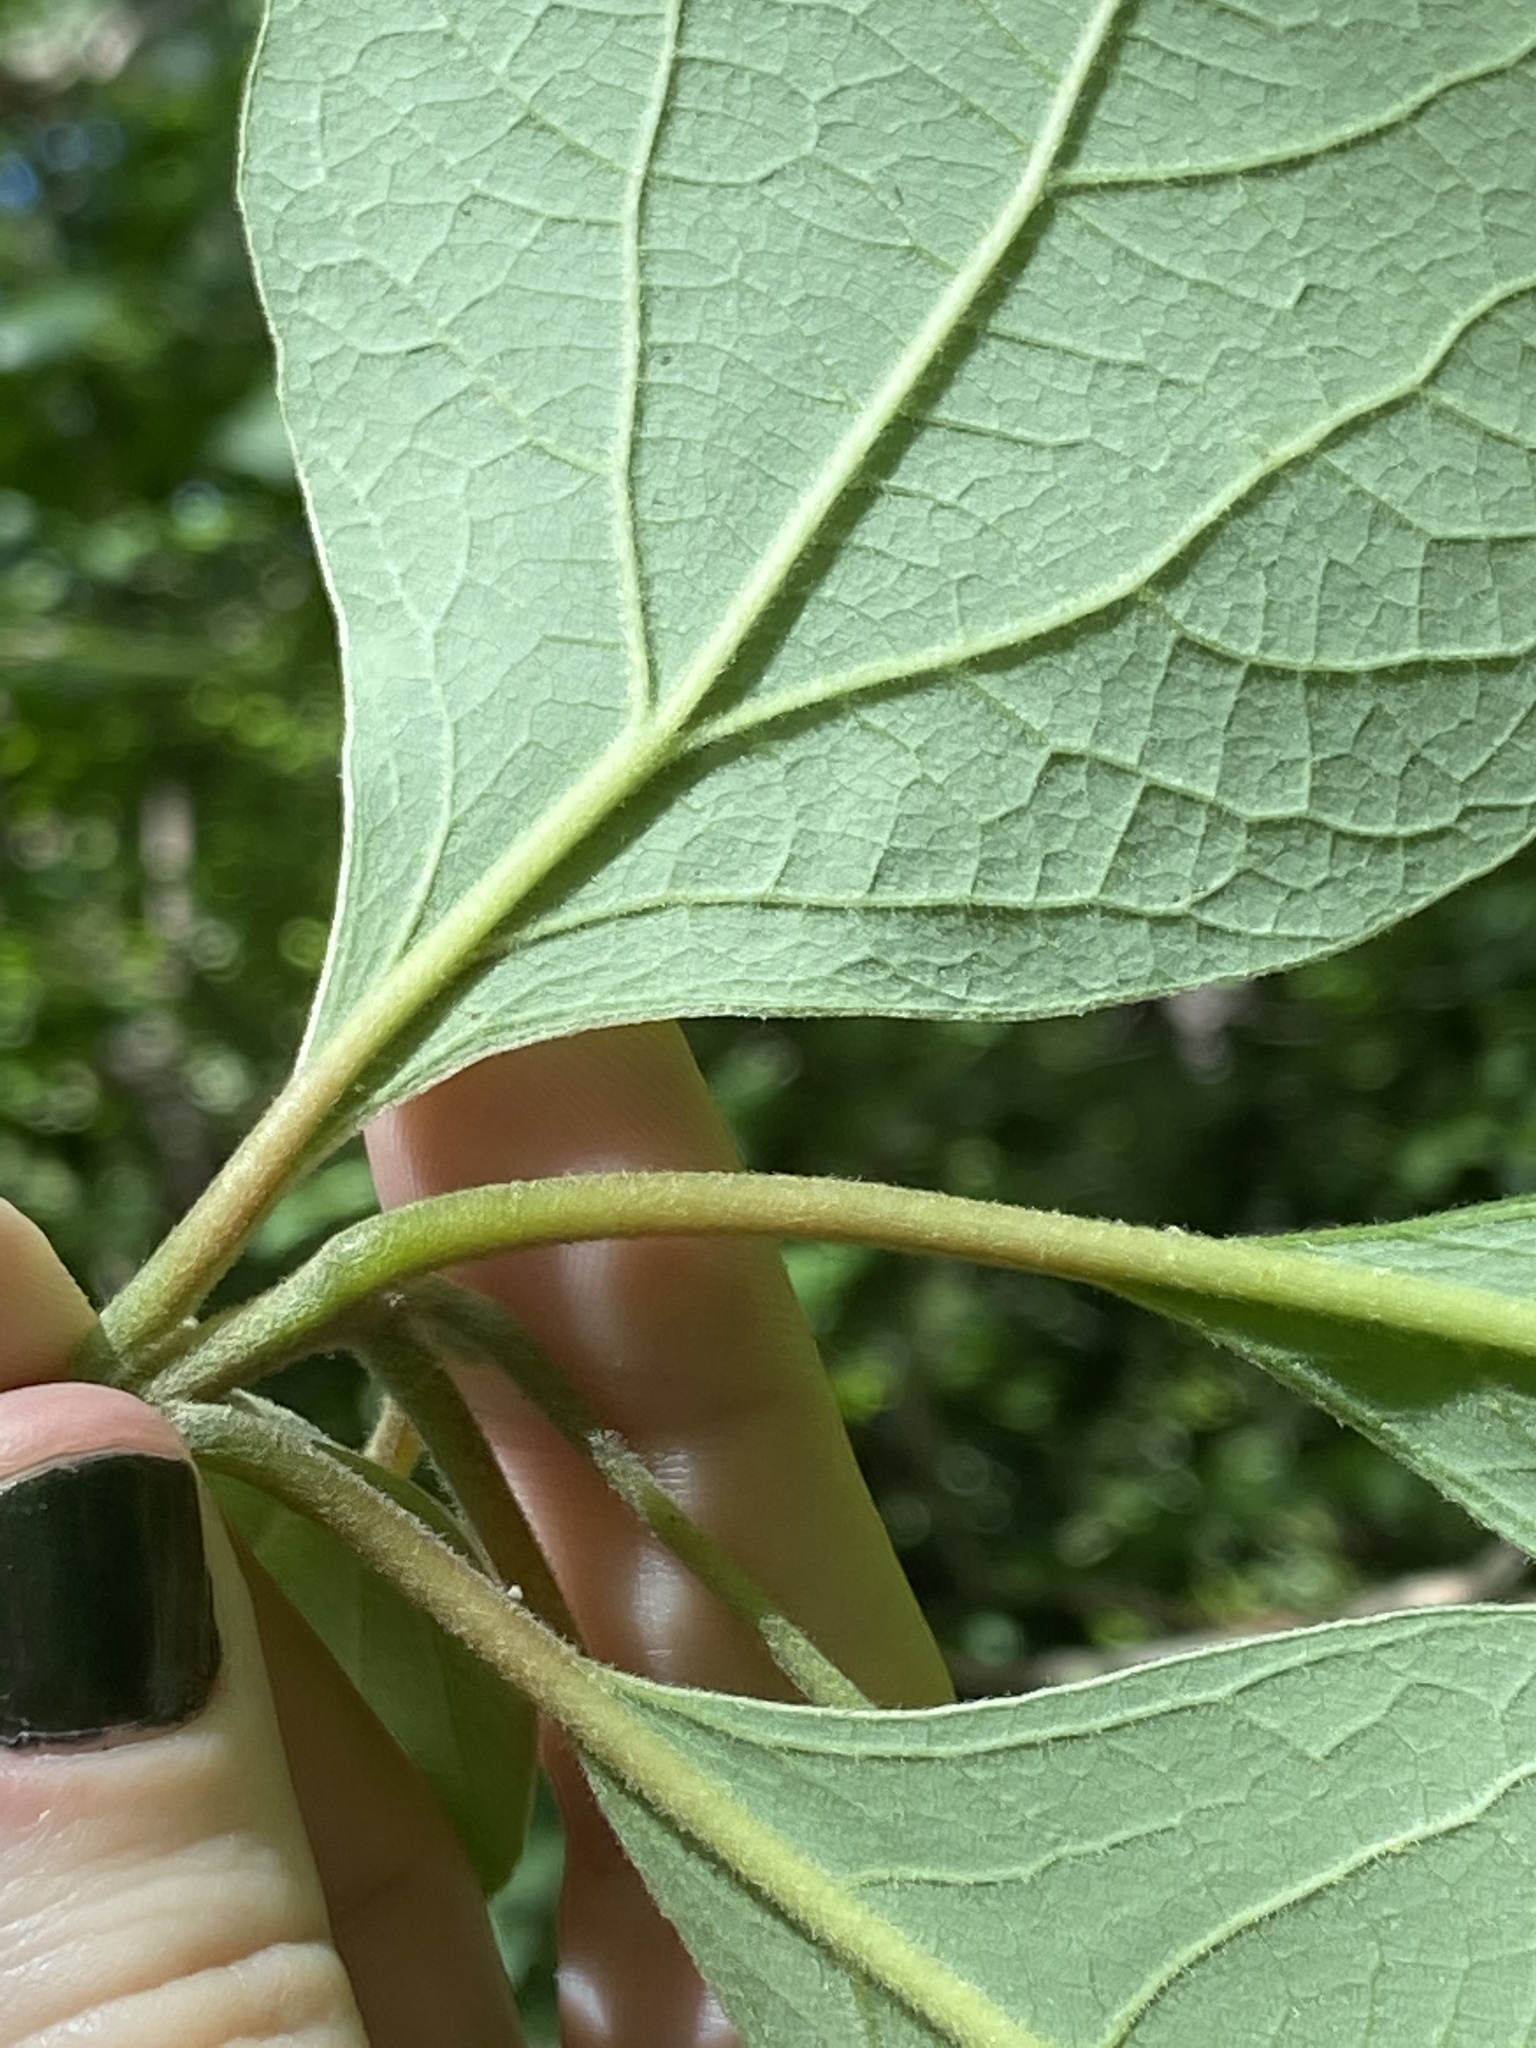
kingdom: Plantae
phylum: Tracheophyta
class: Magnoliopsida
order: Laurales
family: Lauraceae
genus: Sassafras
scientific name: Sassafras albidum
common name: Sassafras
